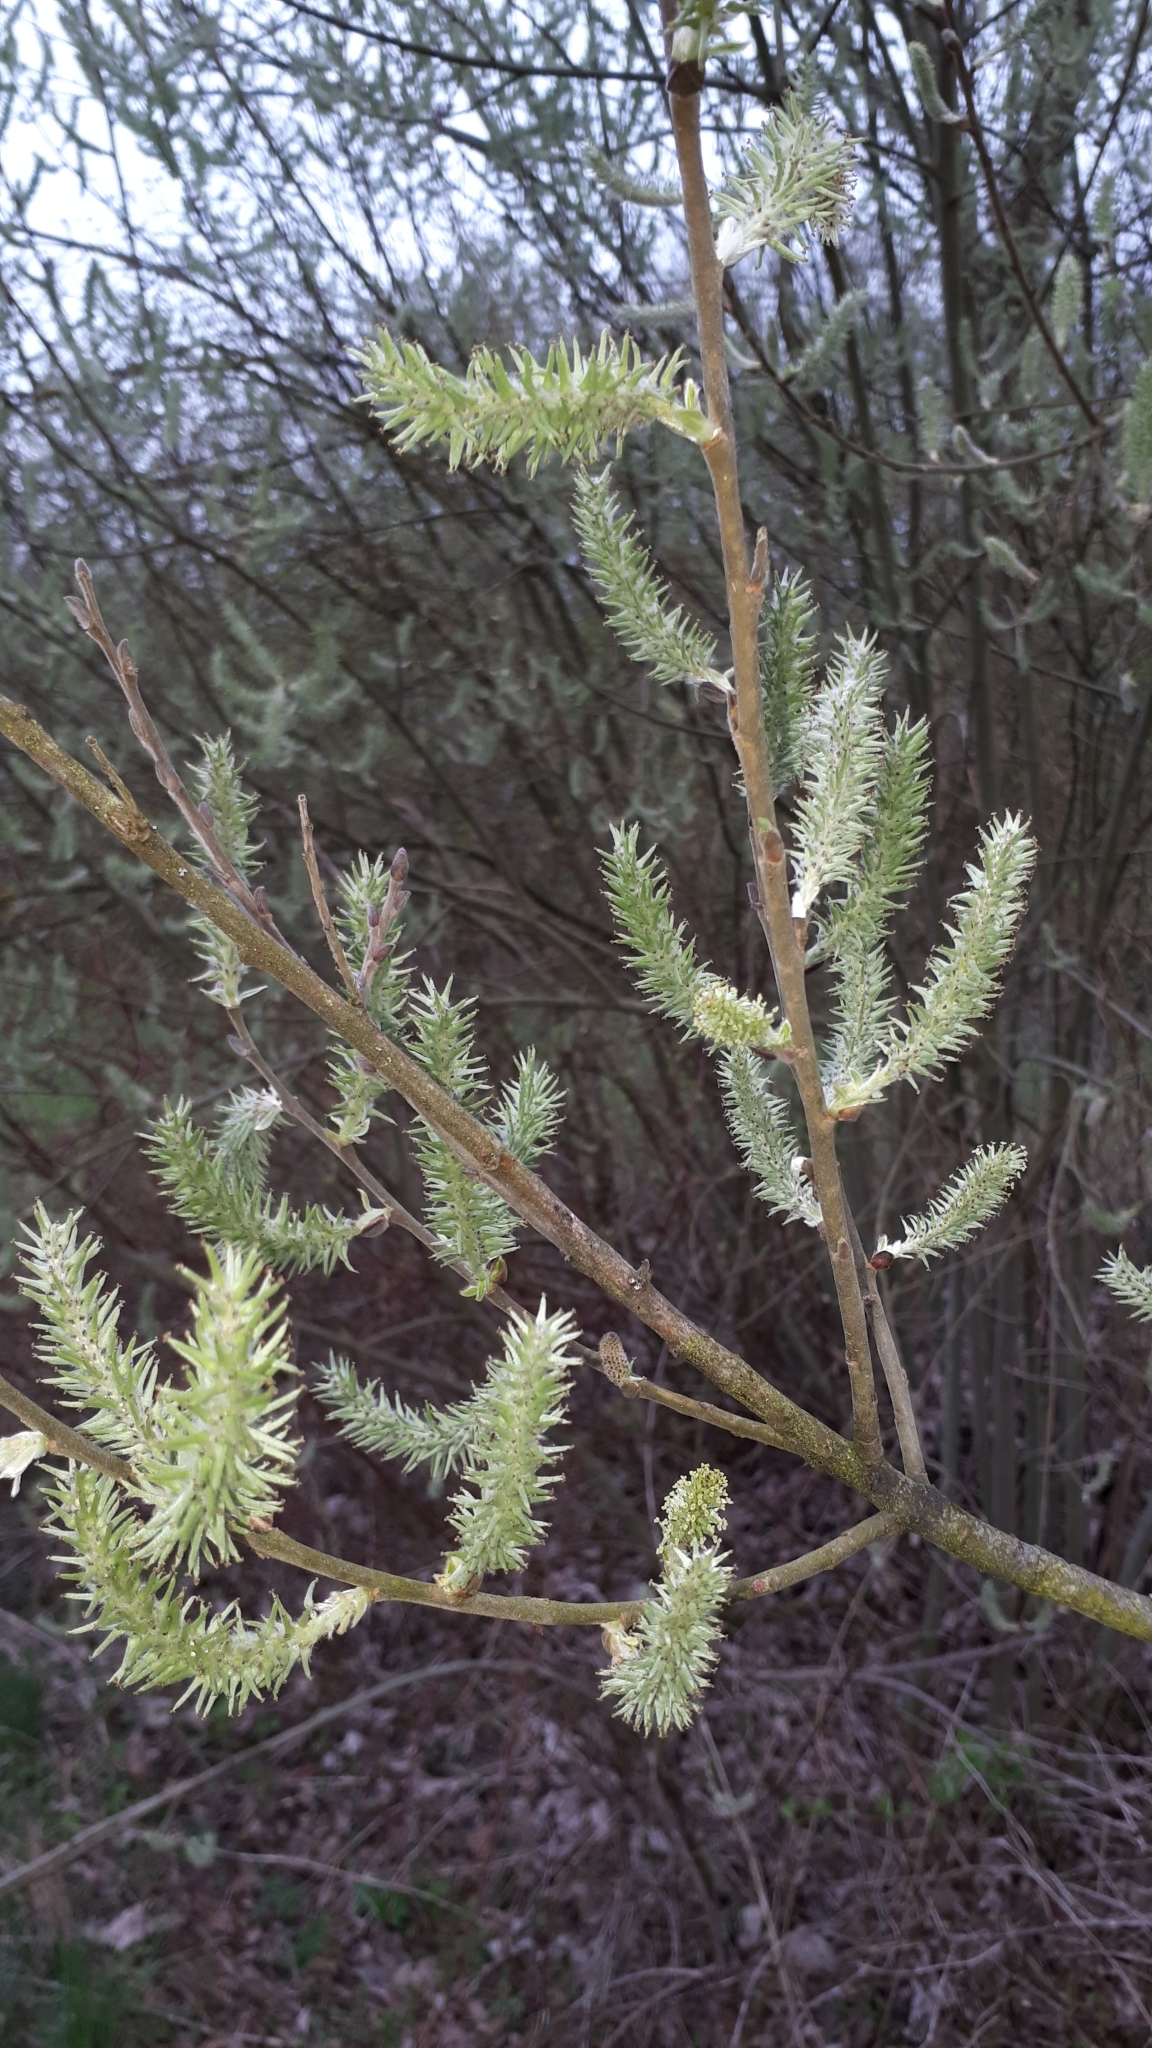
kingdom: Plantae
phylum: Tracheophyta
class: Magnoliopsida
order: Malpighiales
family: Salicaceae
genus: Salix
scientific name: Salix cinerea
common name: Common sallow
